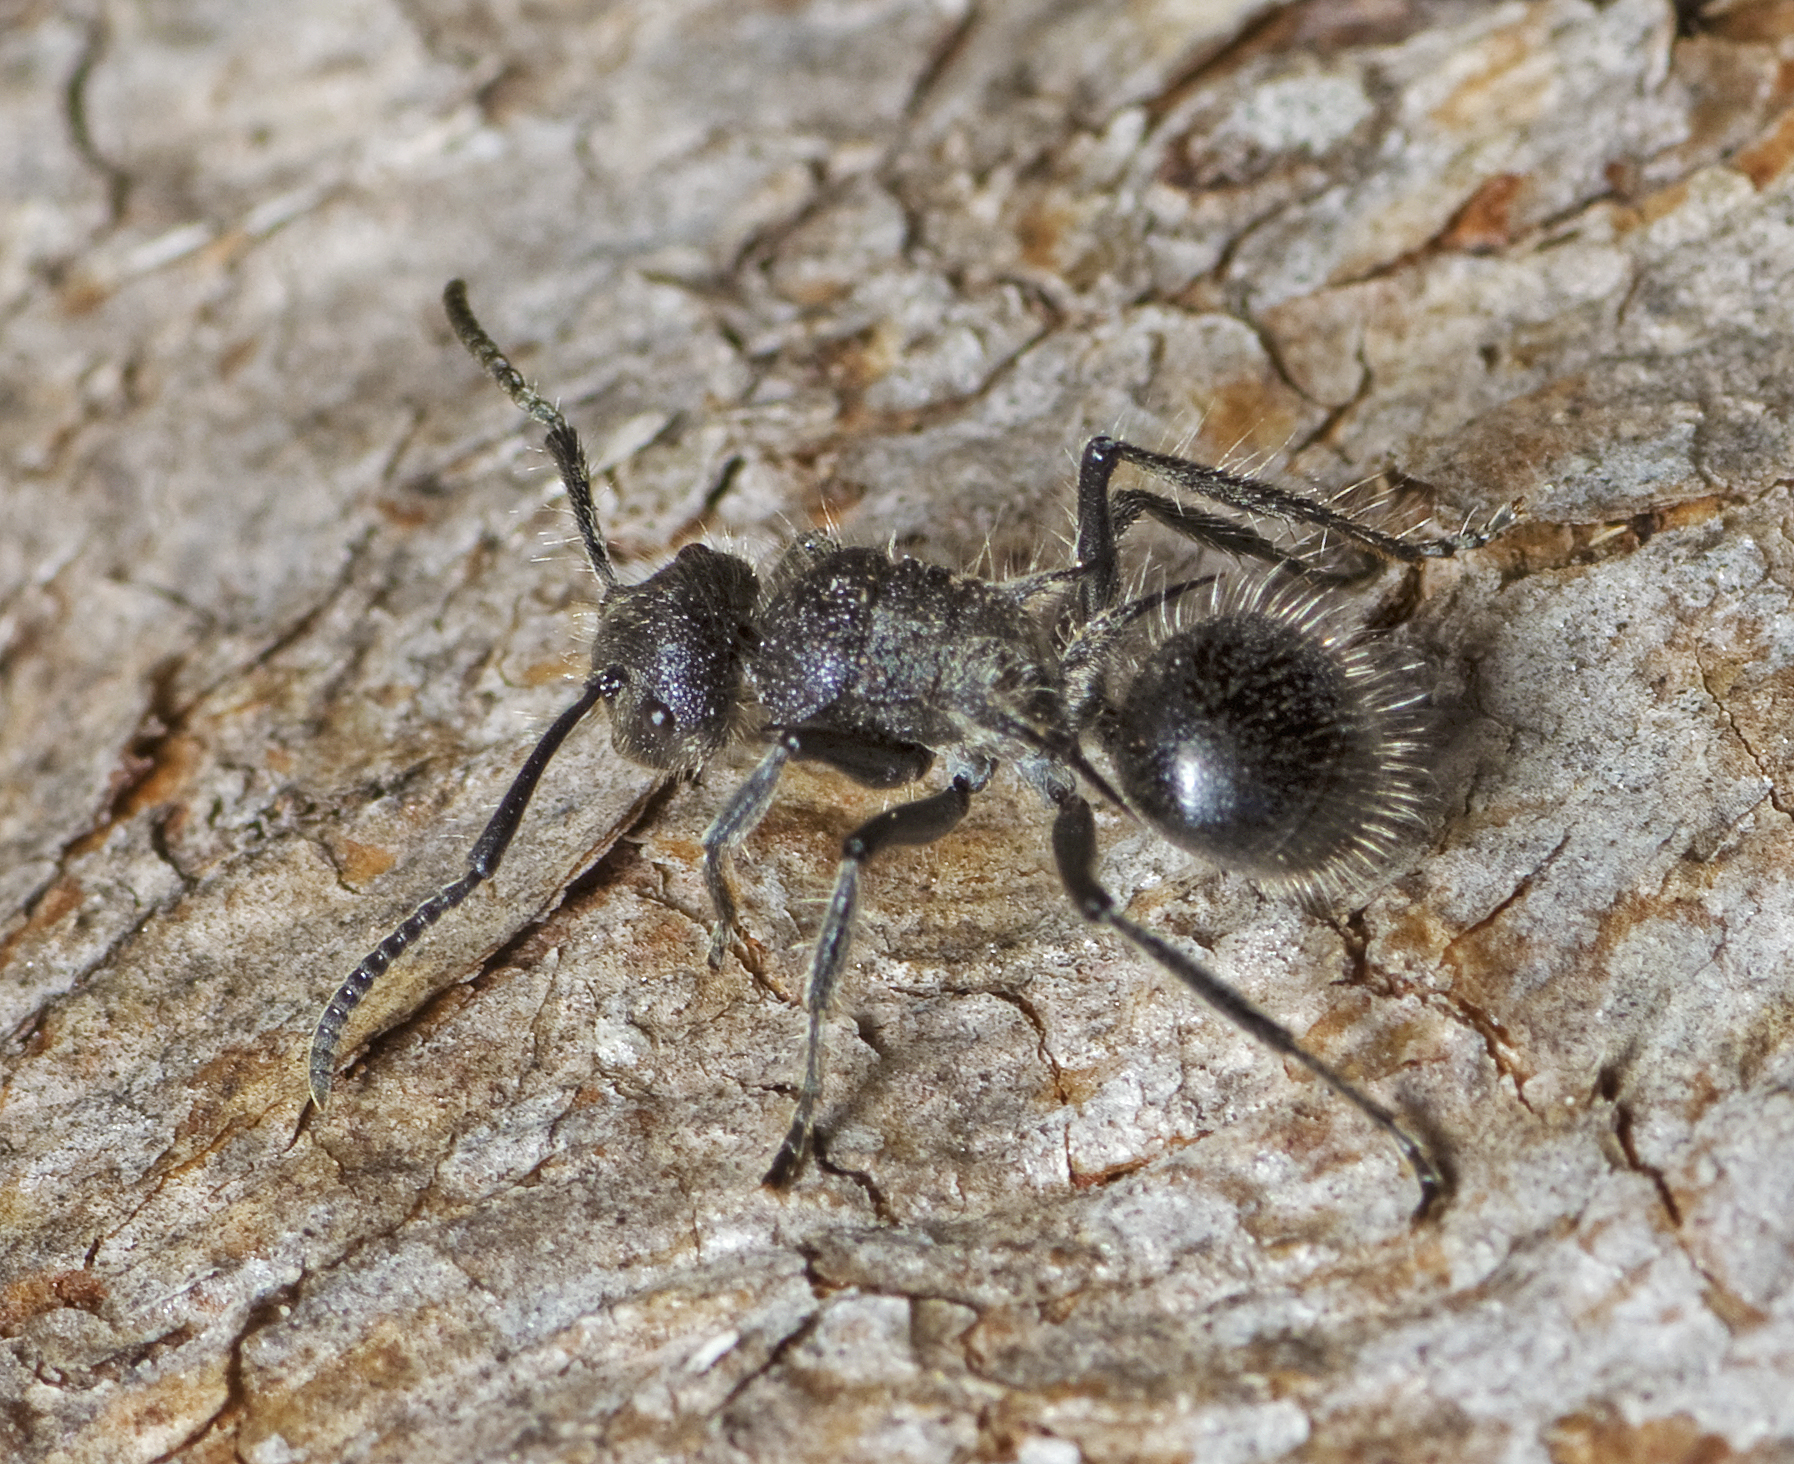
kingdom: Animalia
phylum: Arthropoda
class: Insecta
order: Hymenoptera
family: Formicidae
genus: Polyrhachis
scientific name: Polyrhachis punctiventris
